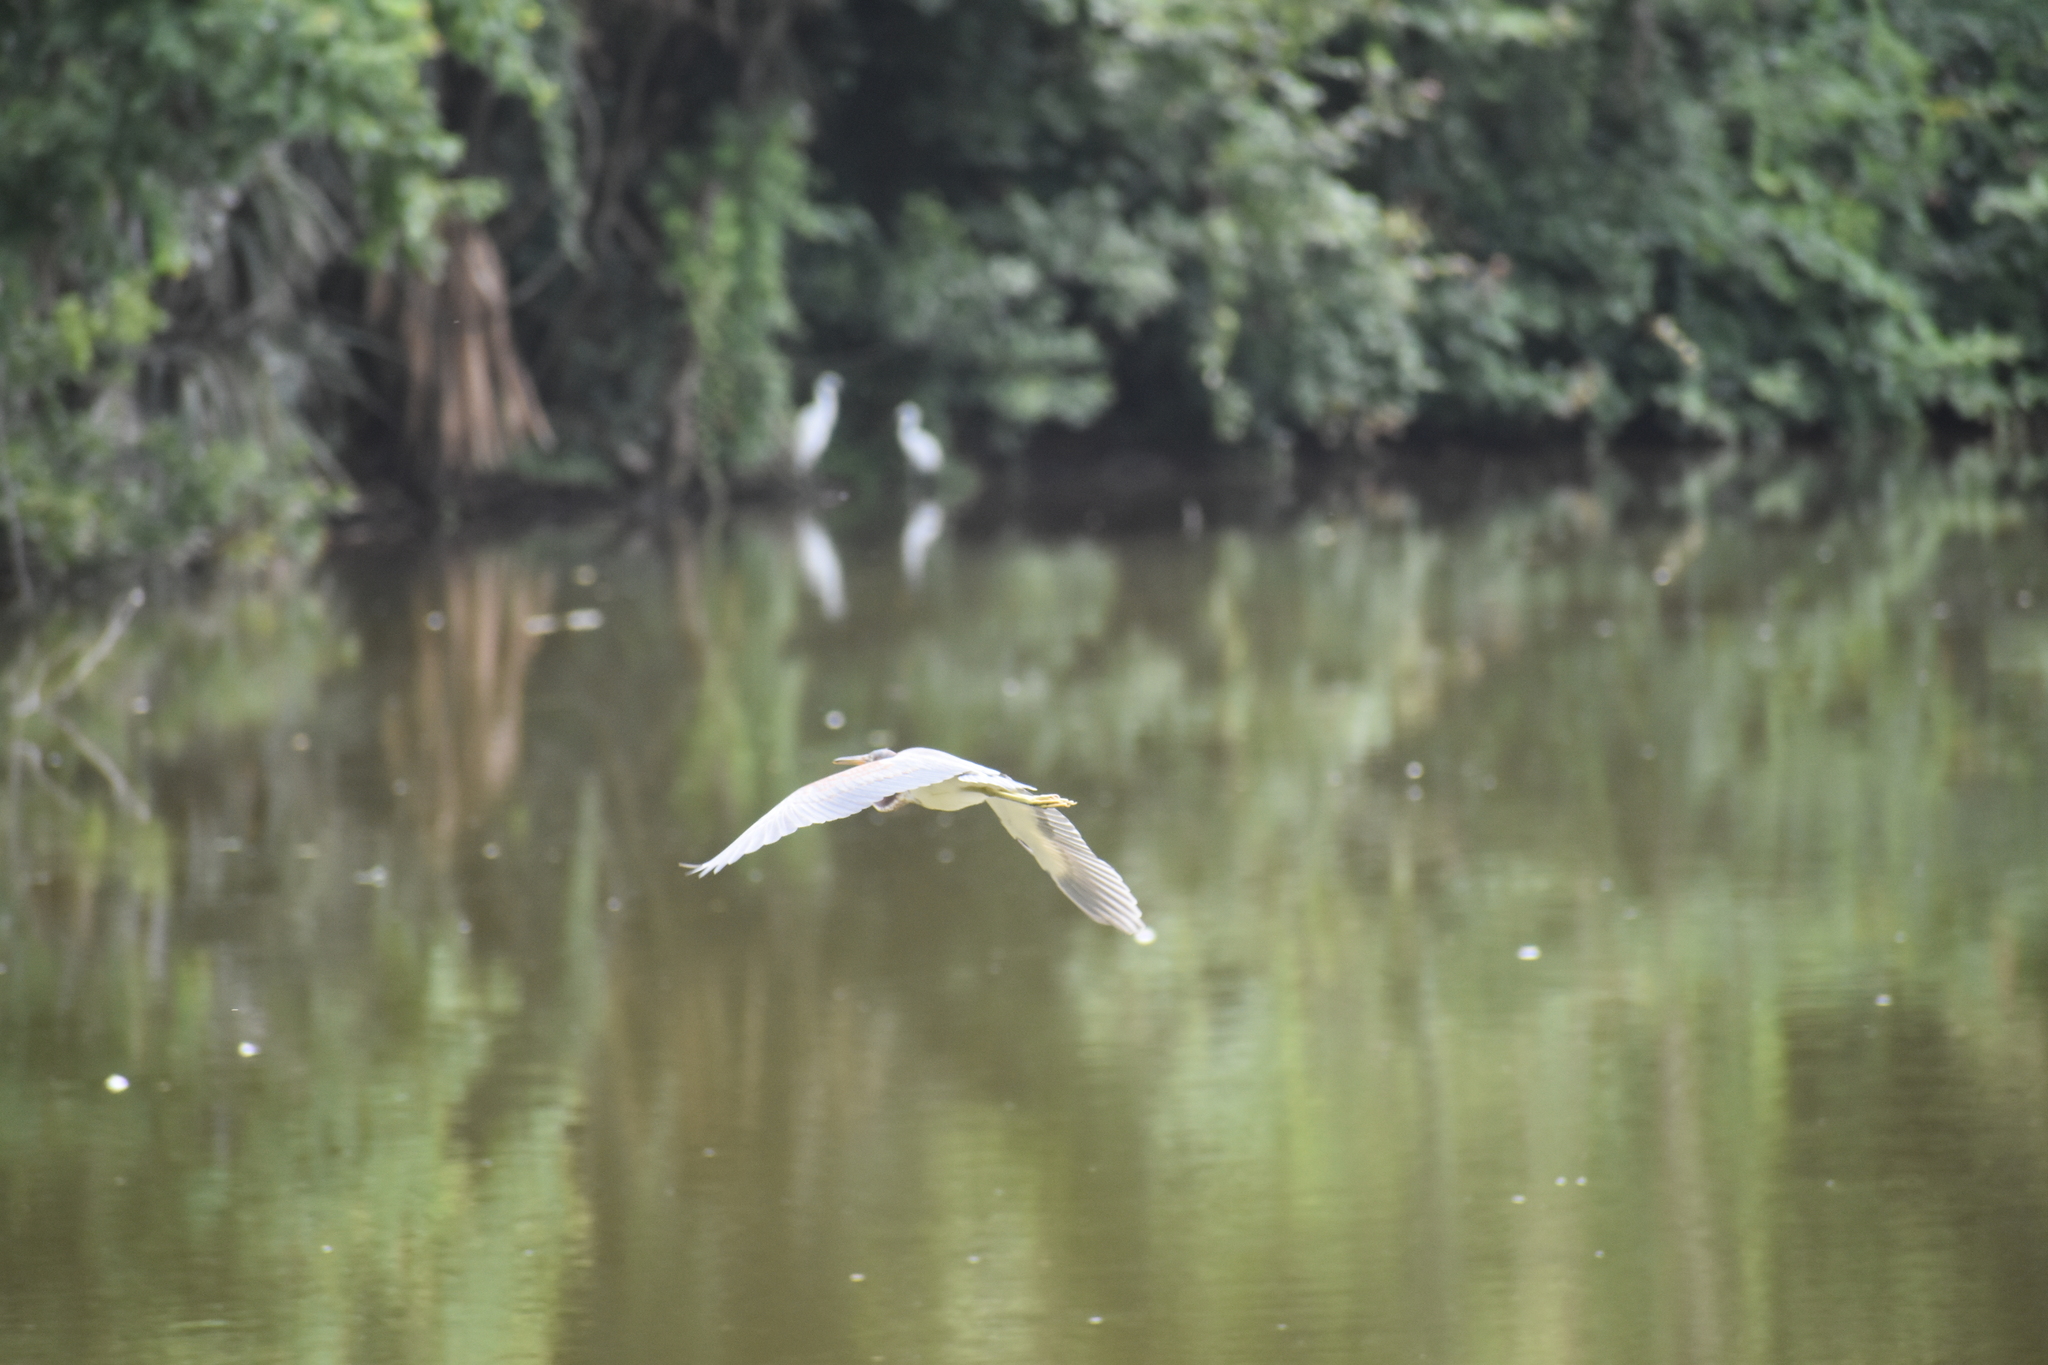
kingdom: Animalia
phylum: Chordata
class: Aves
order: Pelecaniformes
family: Ardeidae
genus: Egretta
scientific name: Egretta tricolor
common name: Tricolored heron
